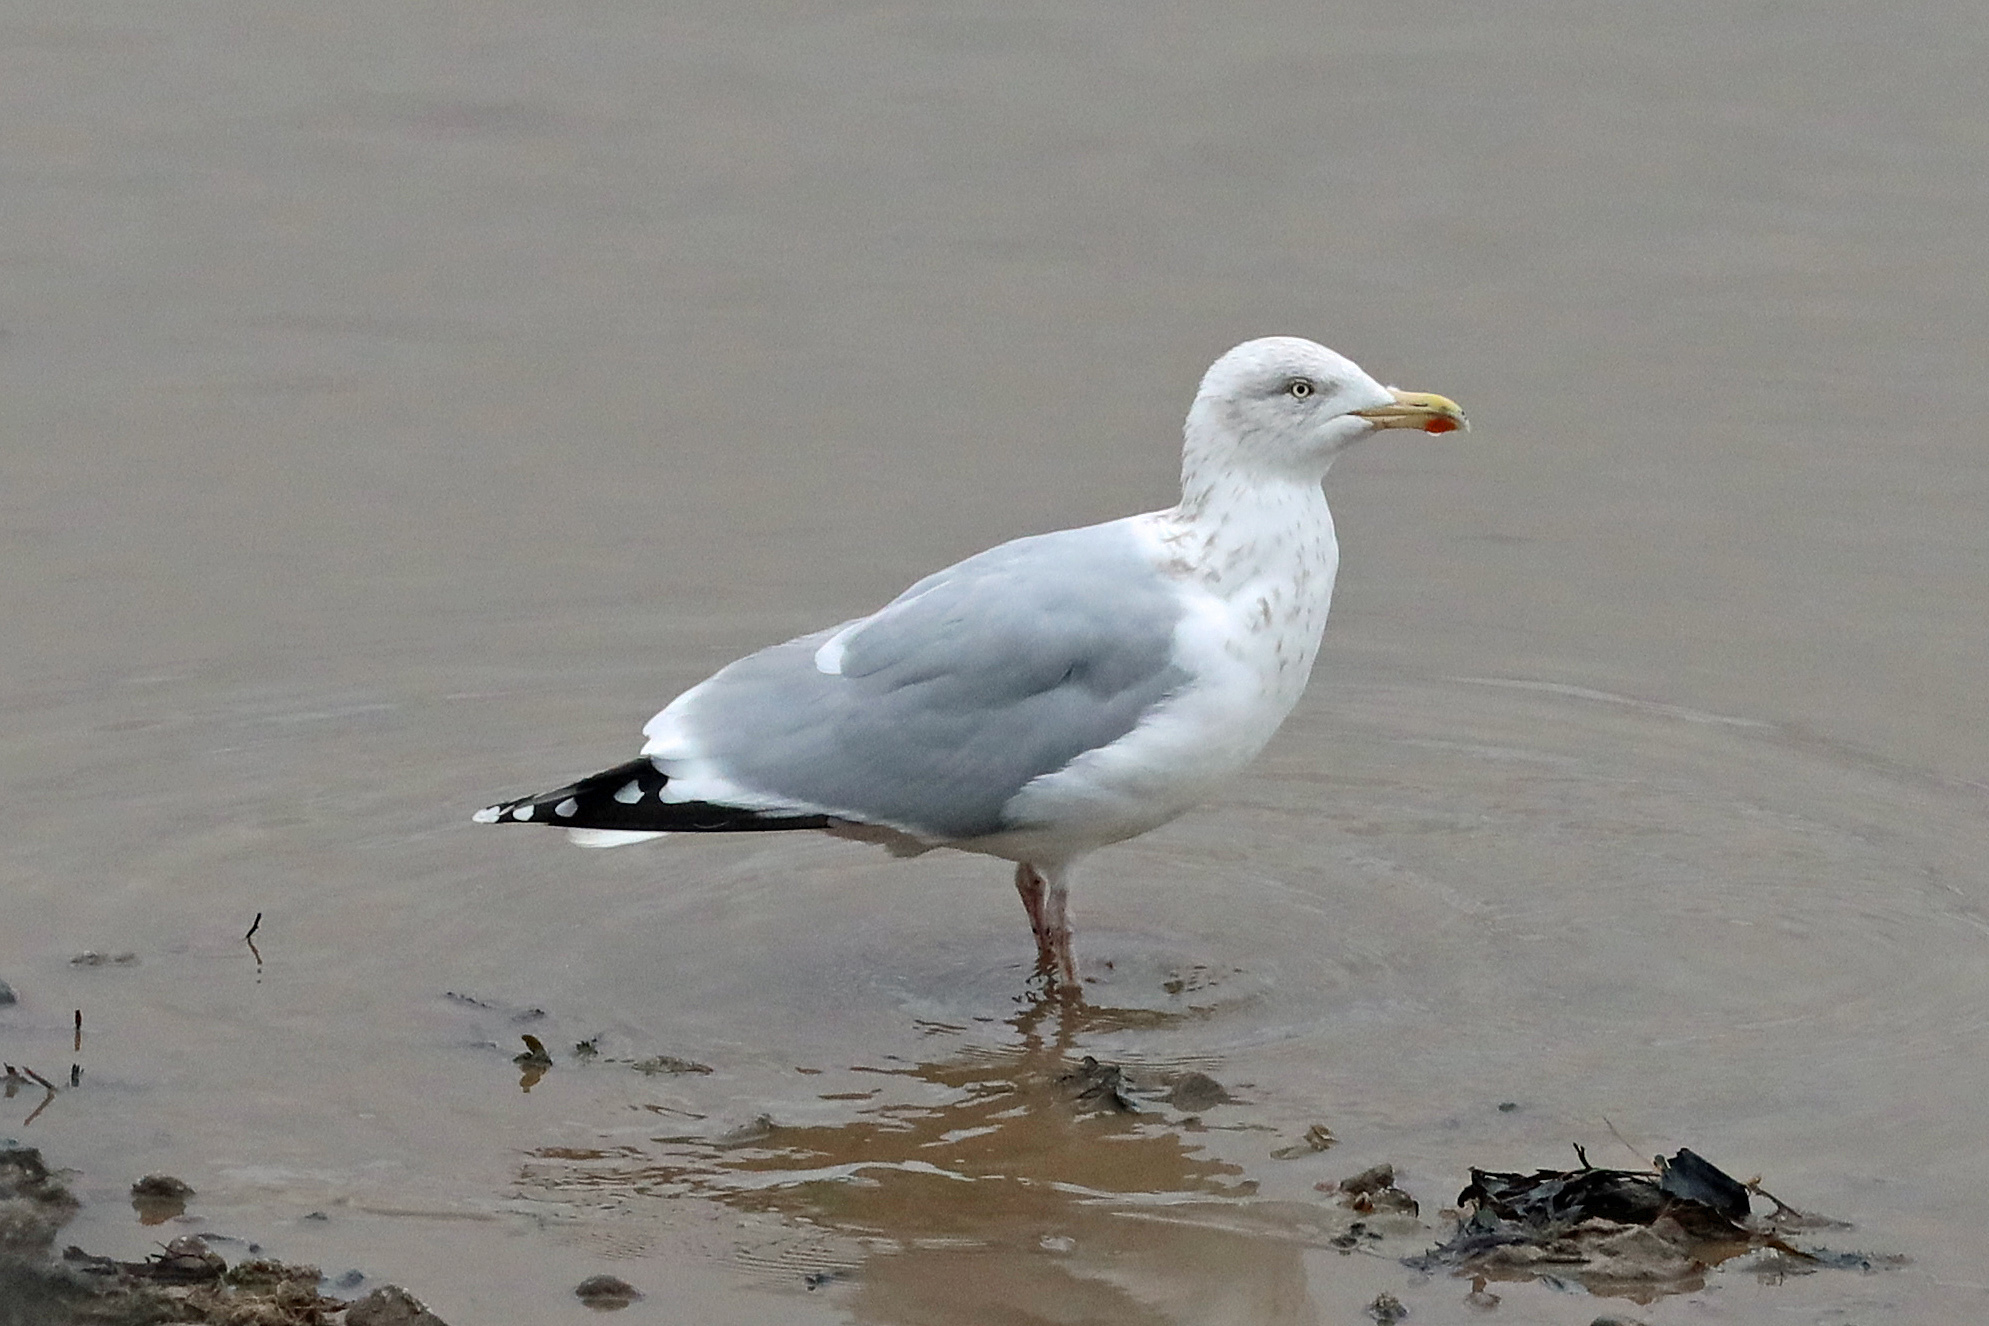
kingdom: Animalia
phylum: Chordata
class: Aves
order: Charadriiformes
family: Laridae
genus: Larus
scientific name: Larus argentatus
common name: Herring gull
